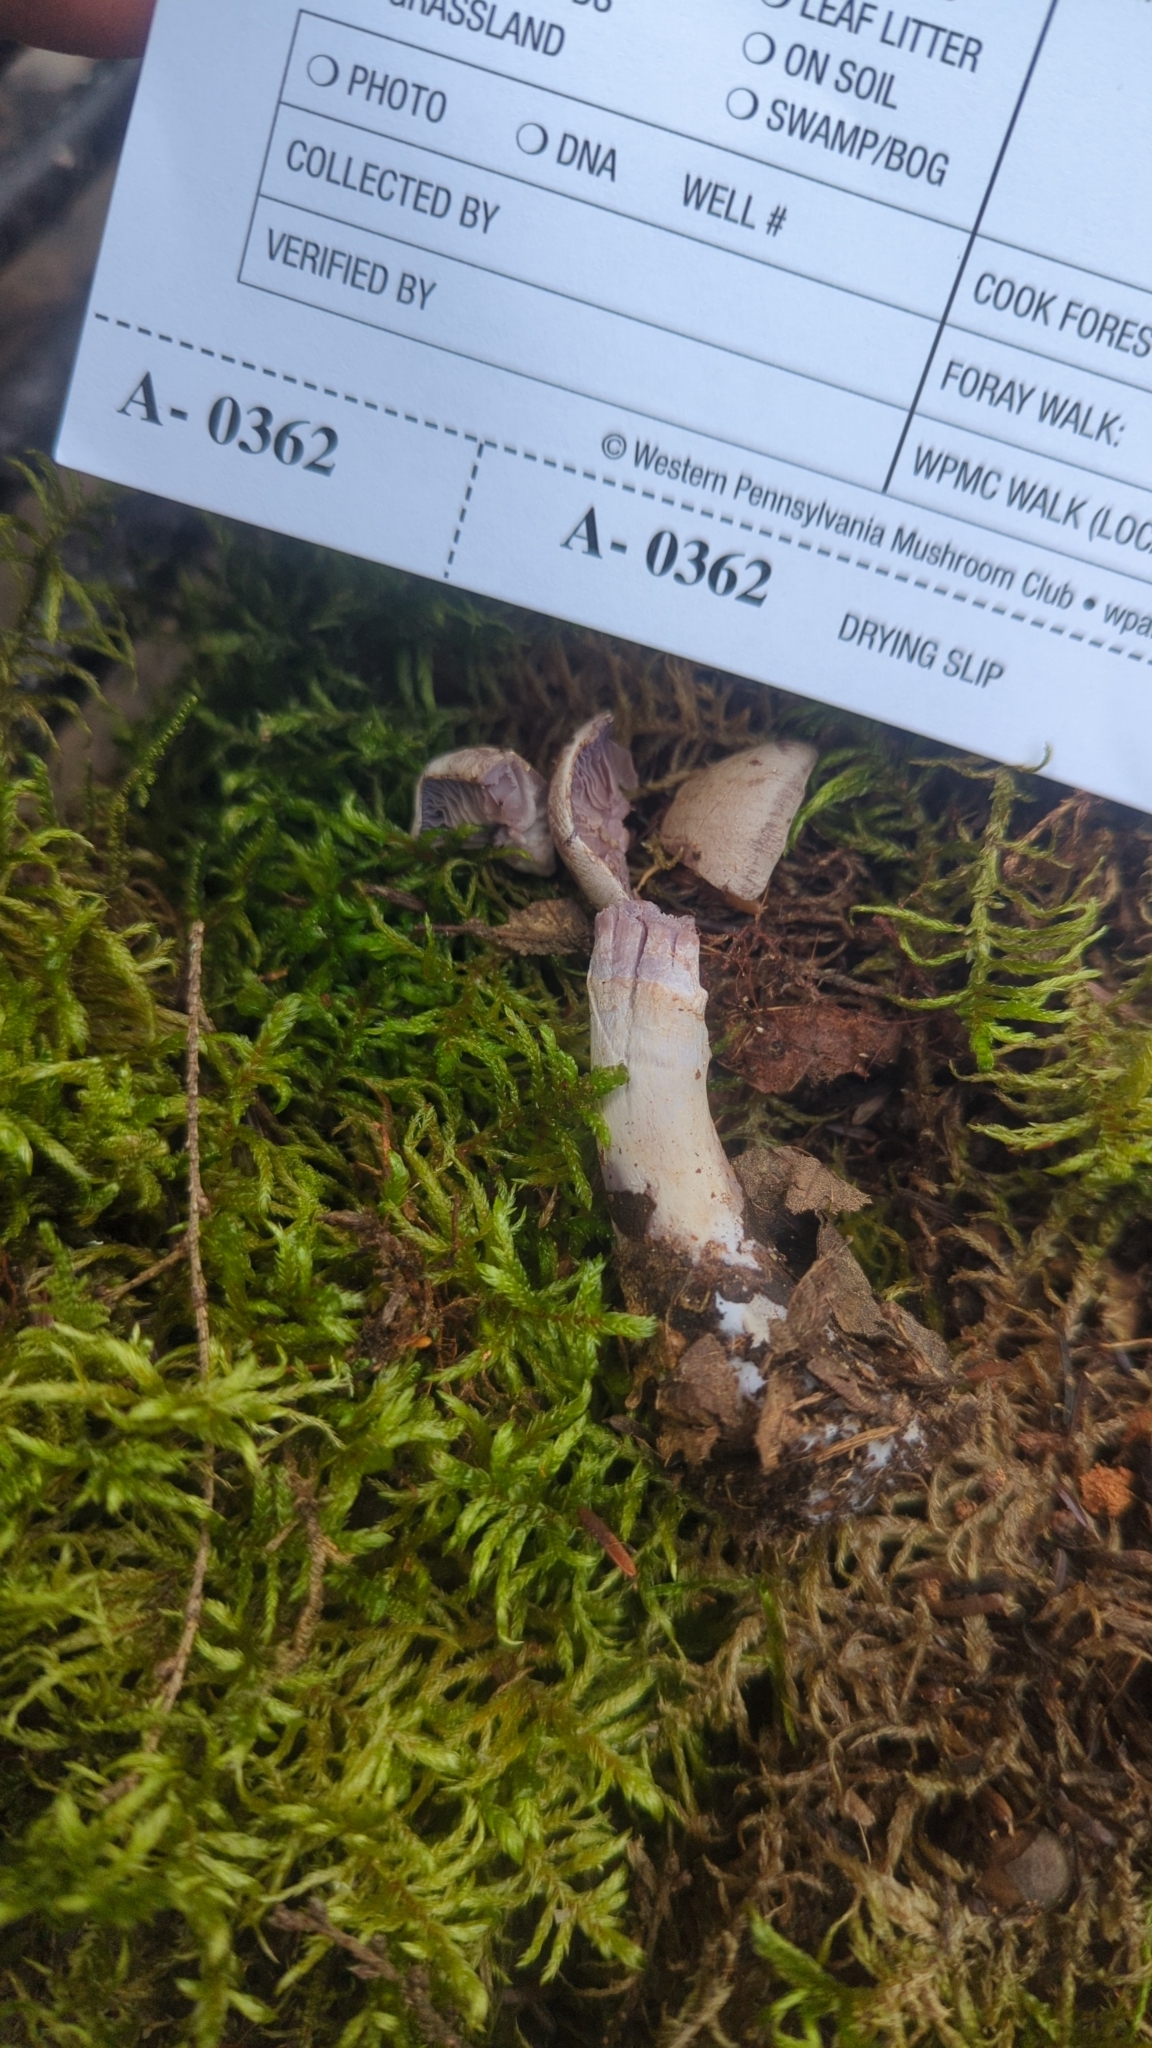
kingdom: Fungi
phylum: Basidiomycota
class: Agaricomycetes
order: Agaricales
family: Cortinariaceae
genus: Cortinarius
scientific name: Cortinarius anomalus
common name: Variable webcap
